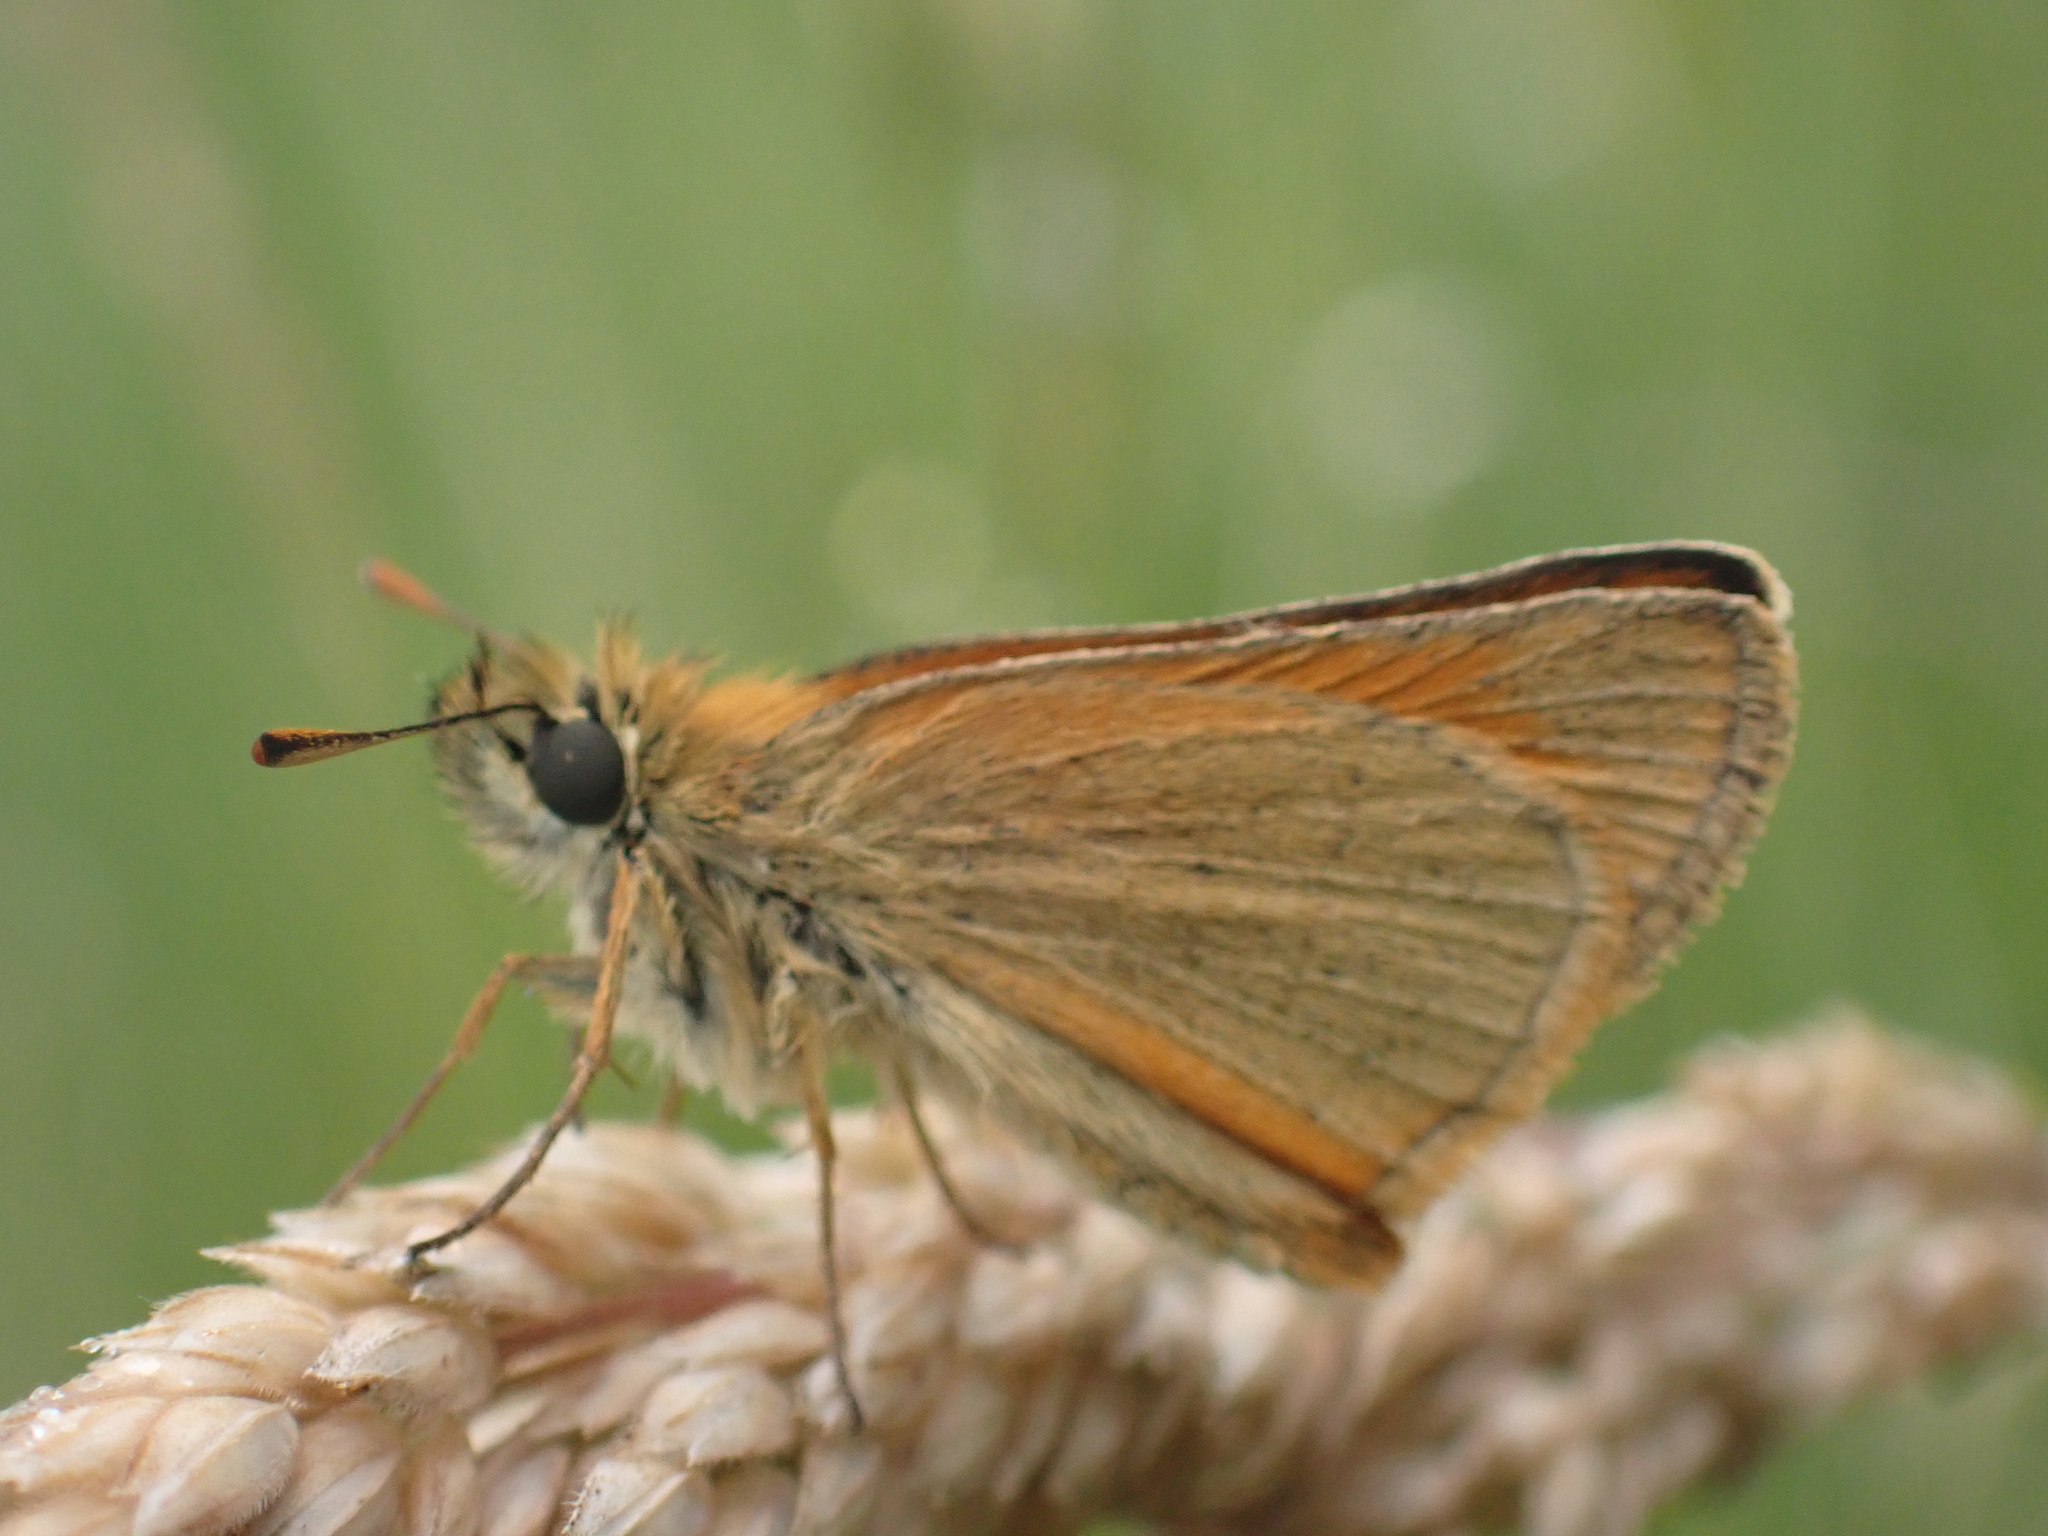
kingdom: Animalia
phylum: Arthropoda
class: Insecta
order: Lepidoptera
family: Hesperiidae
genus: Thymelicus
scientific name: Thymelicus sylvestris
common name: Small skipper
